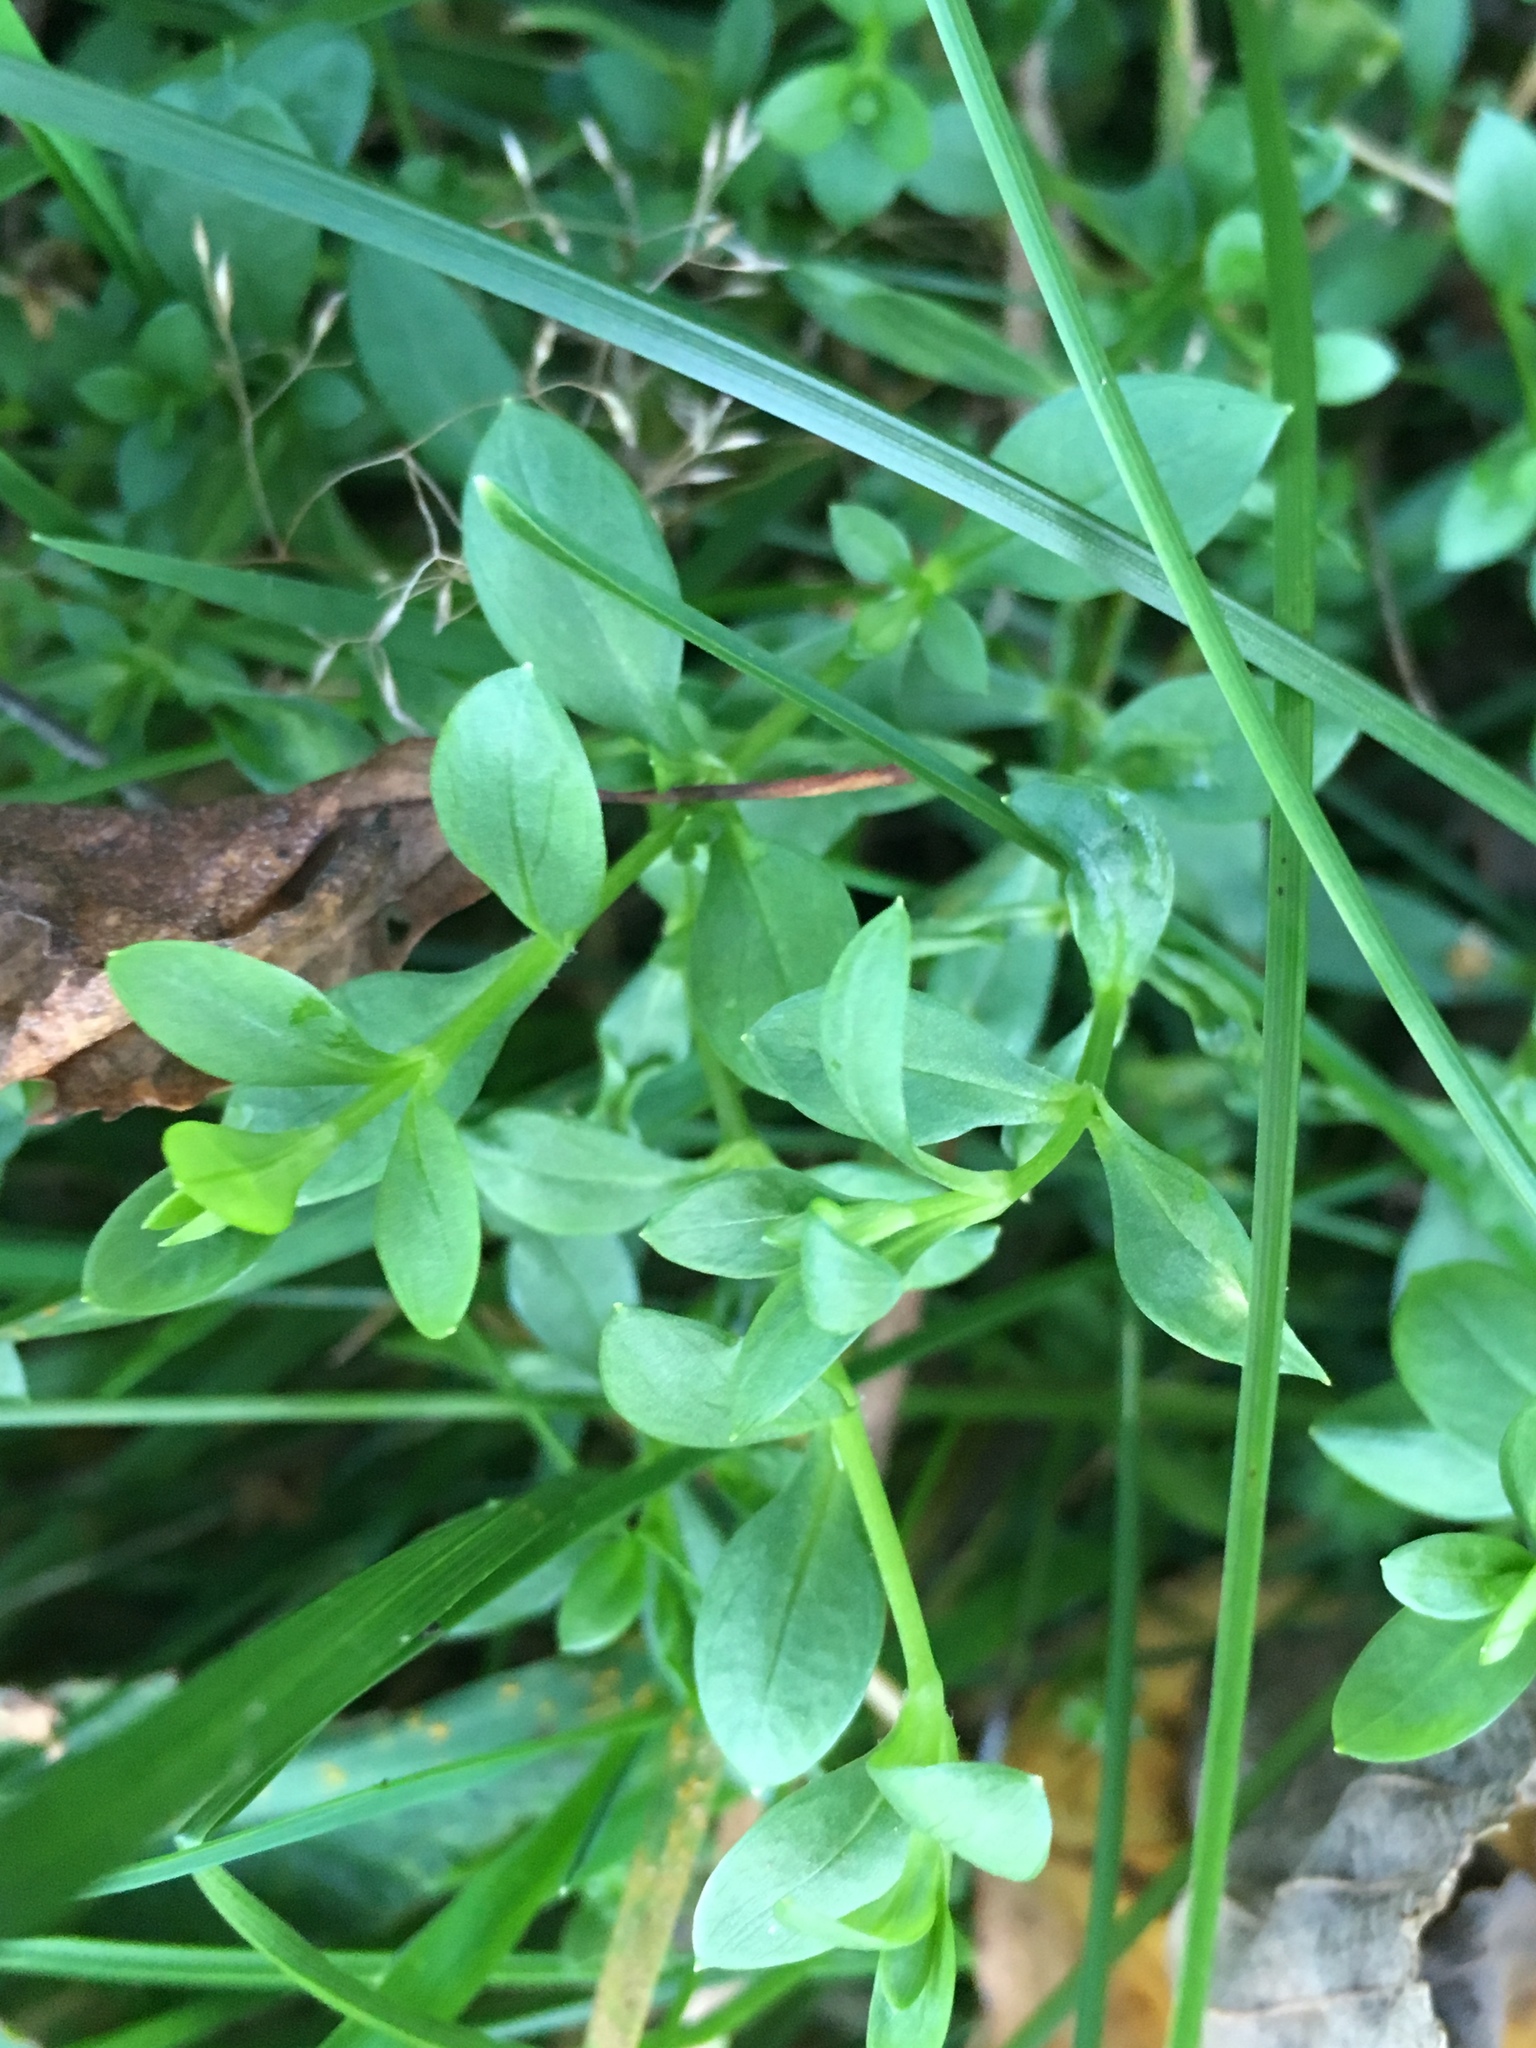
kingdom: Plantae
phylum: Tracheophyta
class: Magnoliopsida
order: Caryophyllales
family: Caryophyllaceae
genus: Moehringia
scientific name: Moehringia trinervia
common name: Three-nerved sandwort
